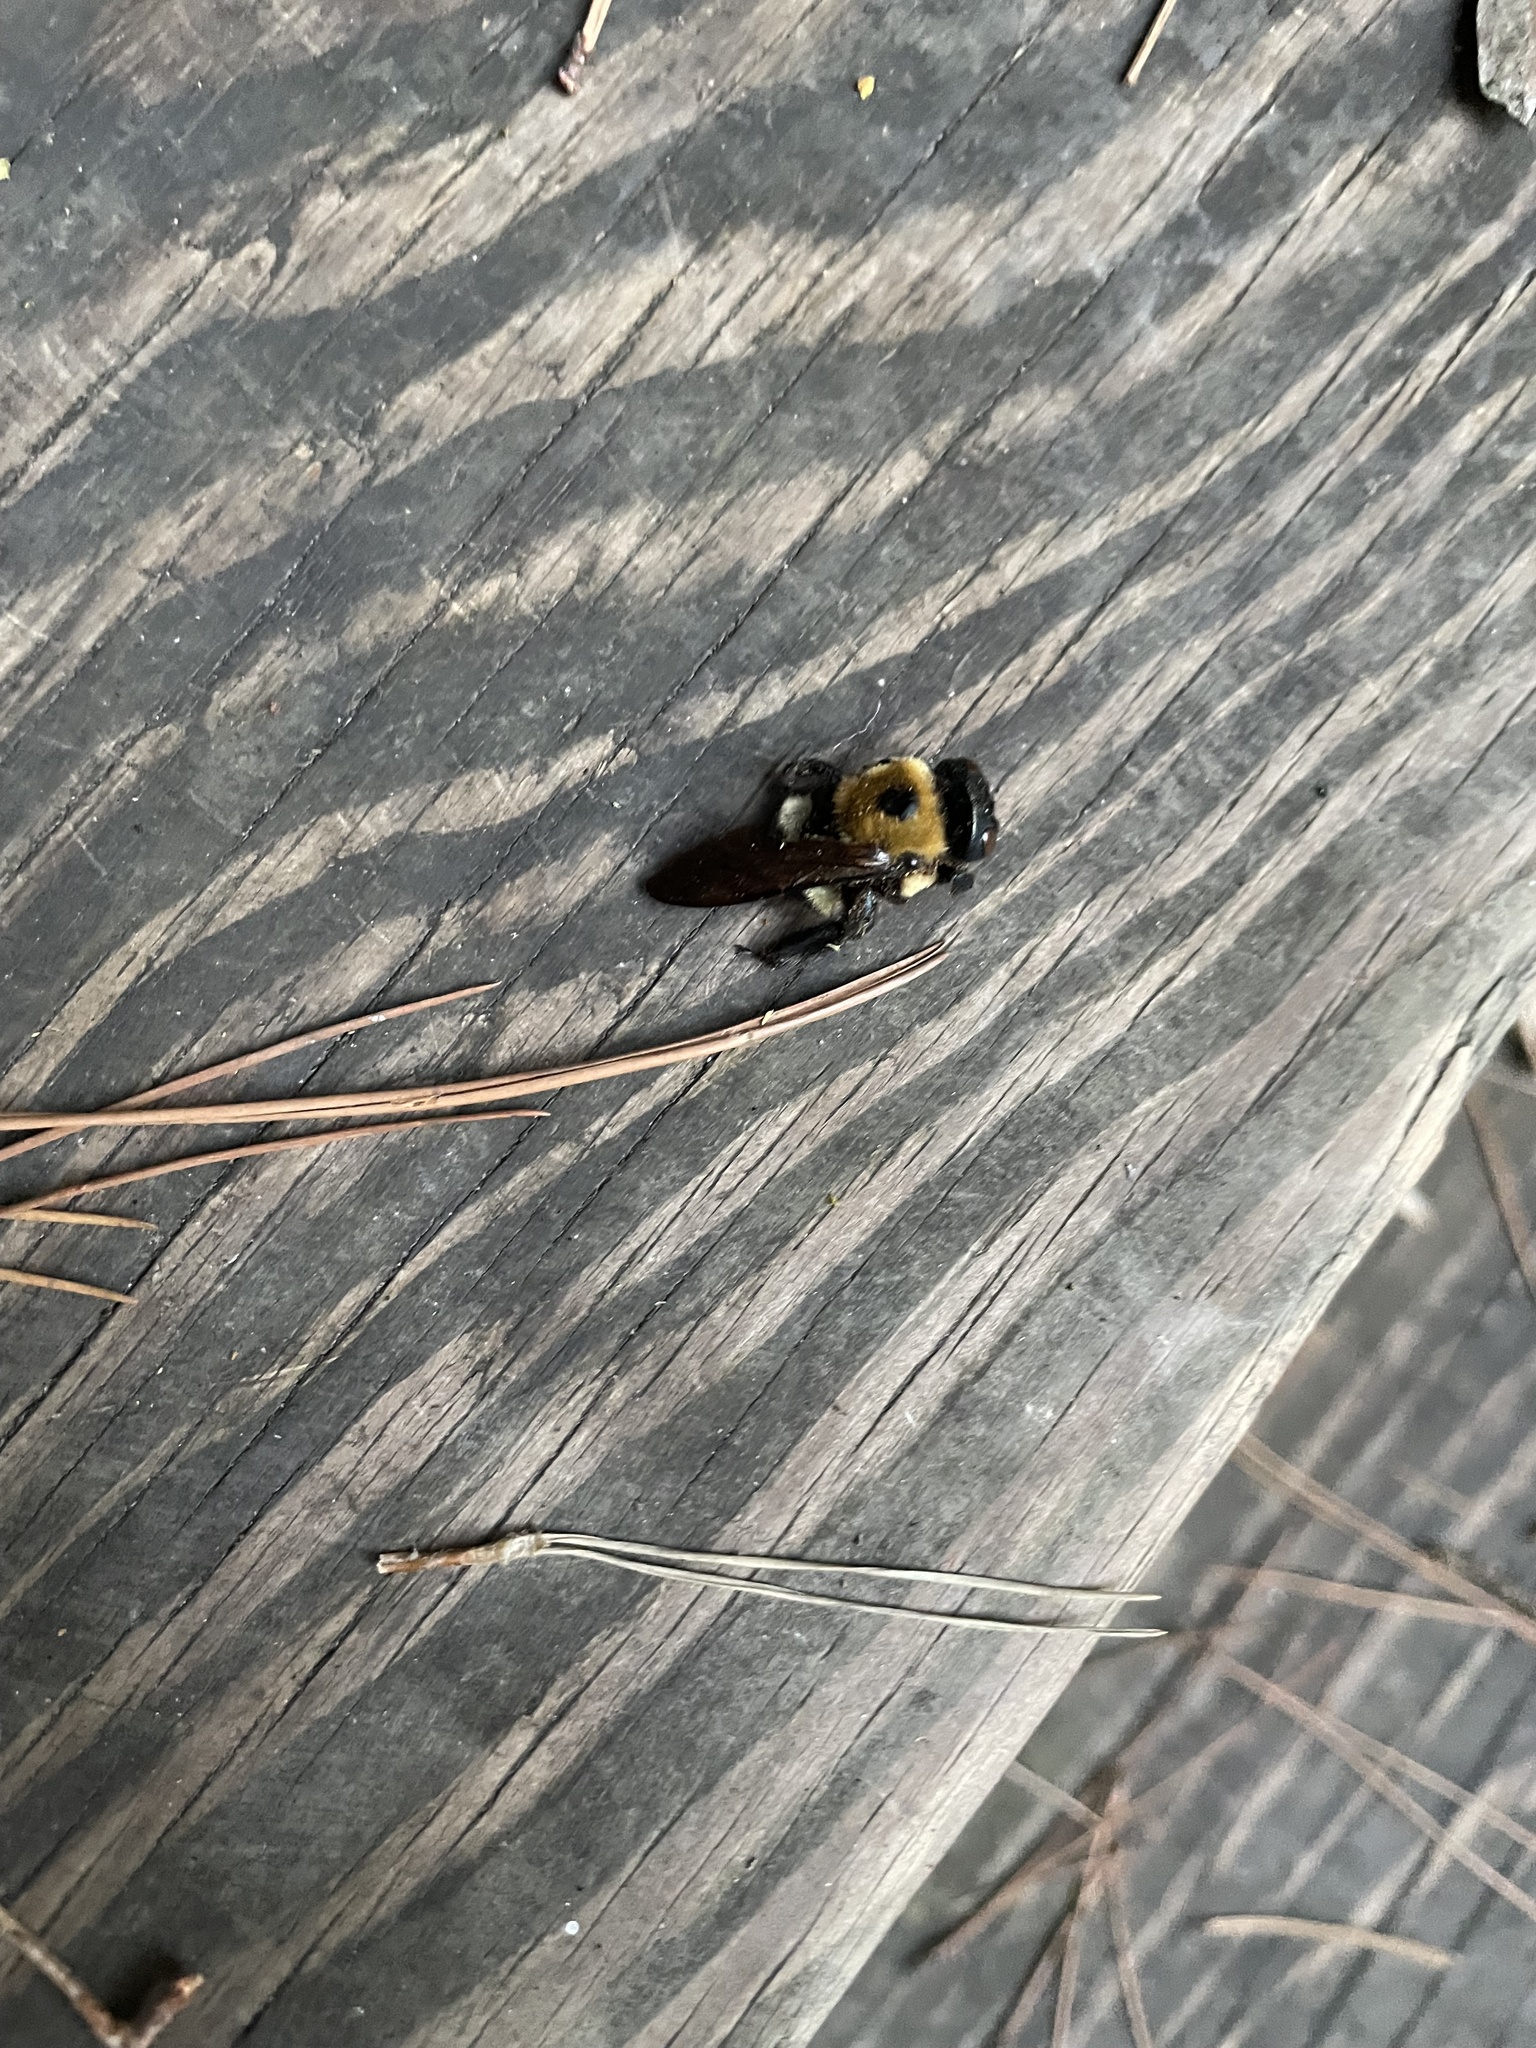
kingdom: Animalia
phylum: Arthropoda
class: Insecta
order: Hymenoptera
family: Apidae
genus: Xylocopa
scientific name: Xylocopa virginica
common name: Carpenter bee
